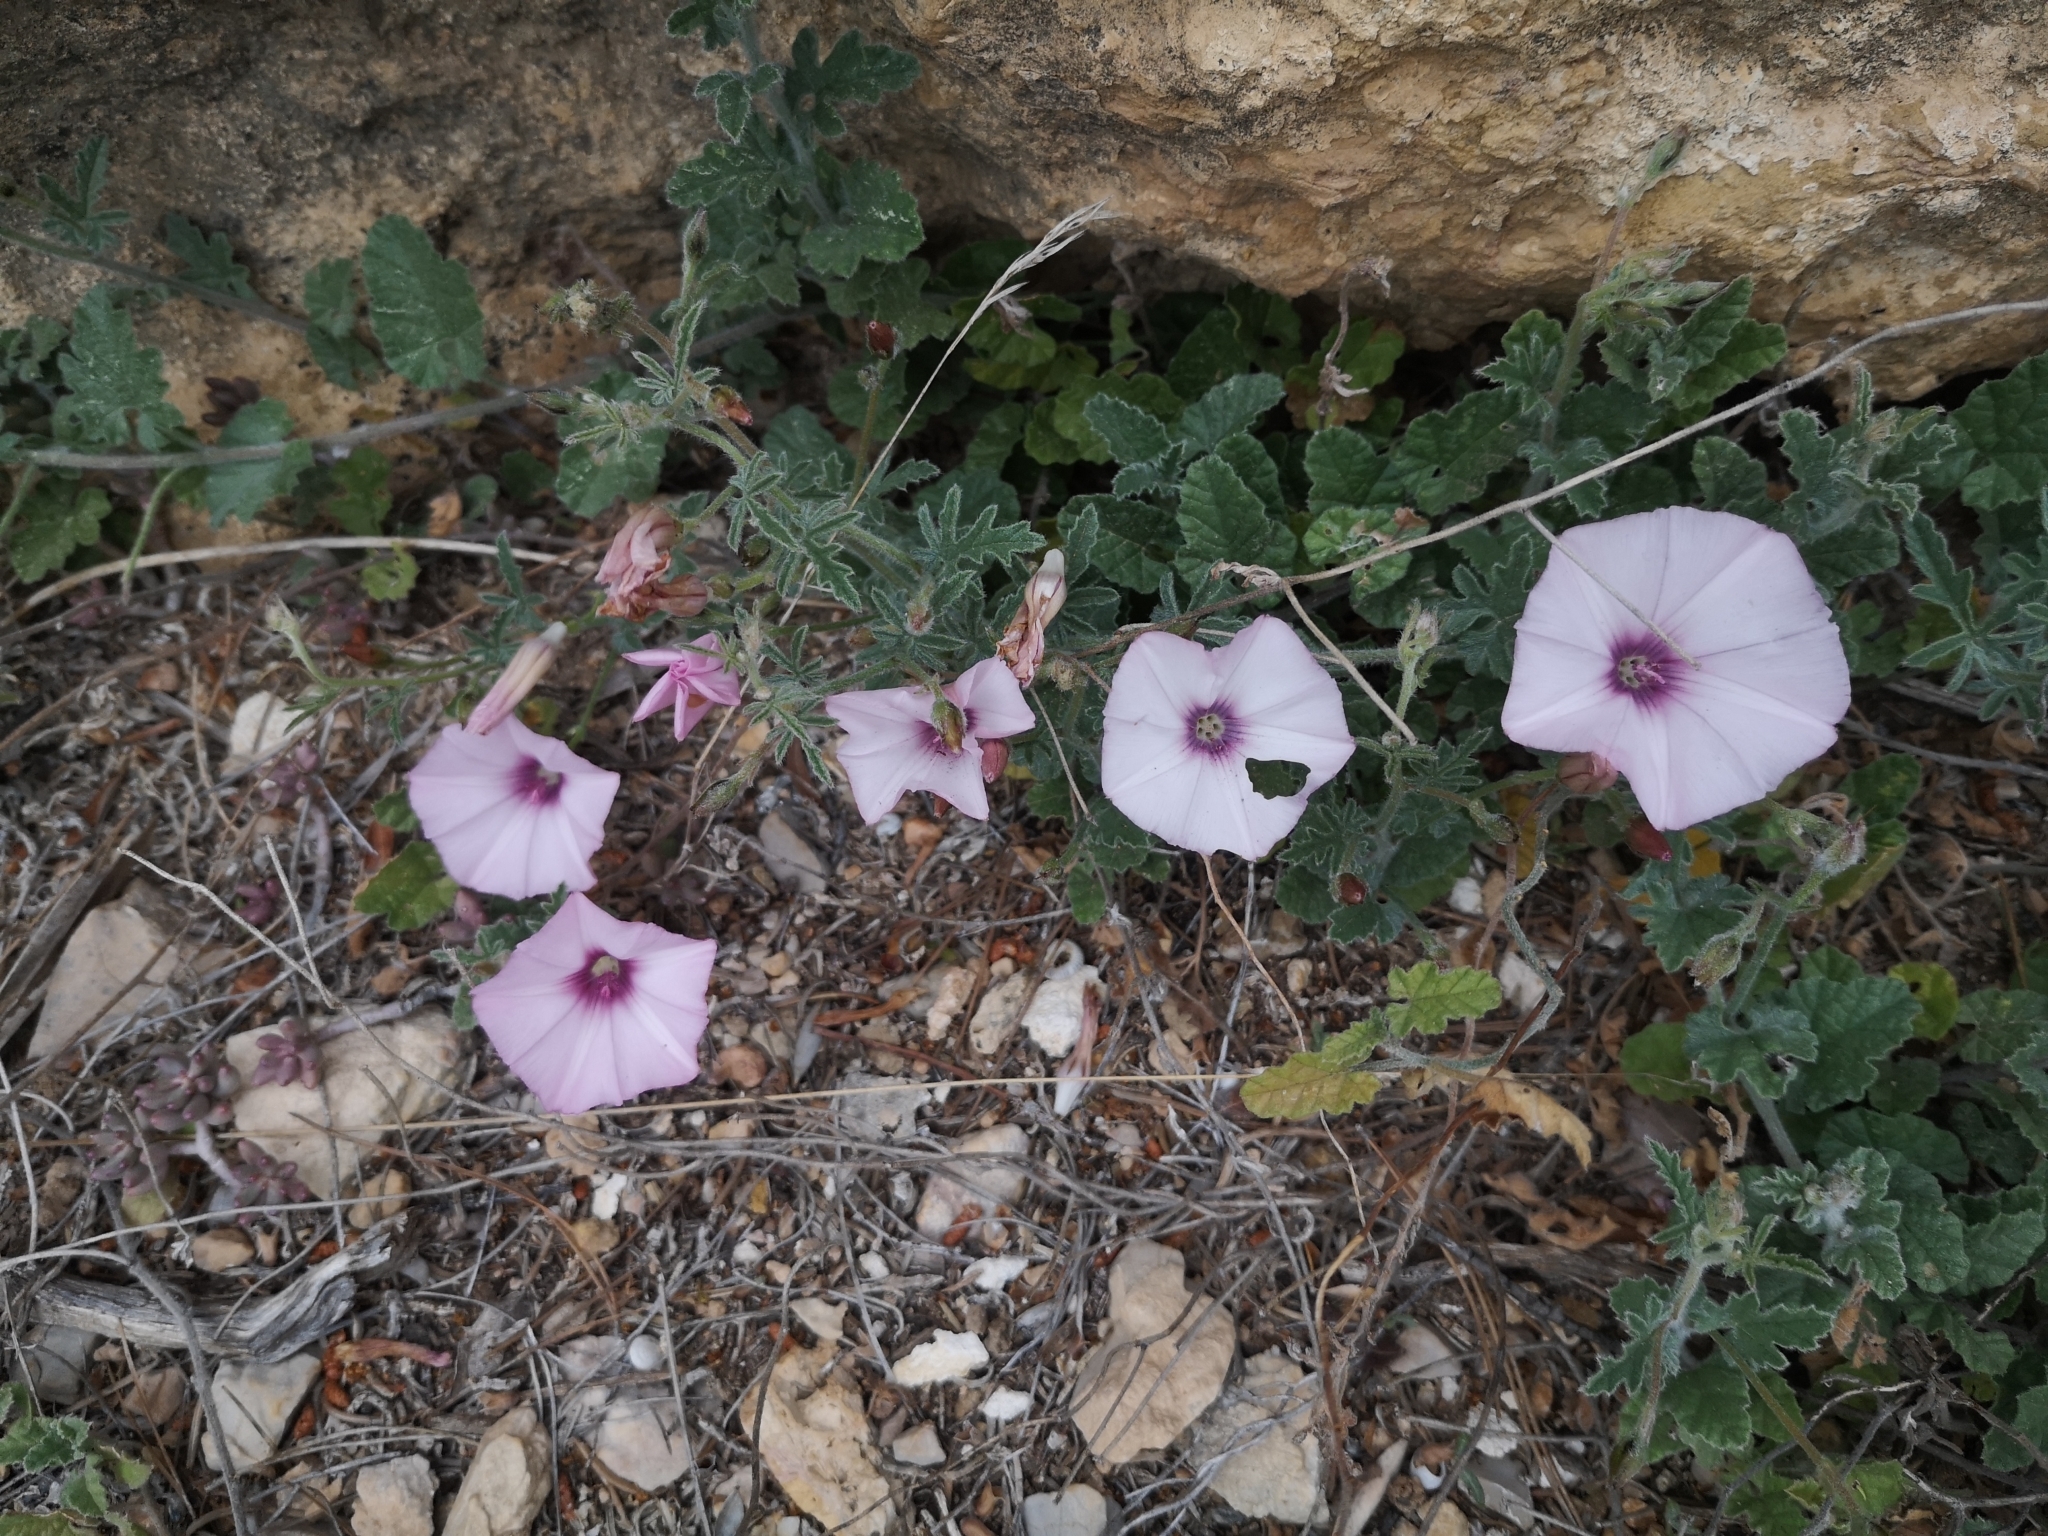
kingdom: Plantae
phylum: Tracheophyta
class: Magnoliopsida
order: Solanales
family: Convolvulaceae
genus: Convolvulus
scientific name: Convolvulus althaeoides
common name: Mallow bindweed
